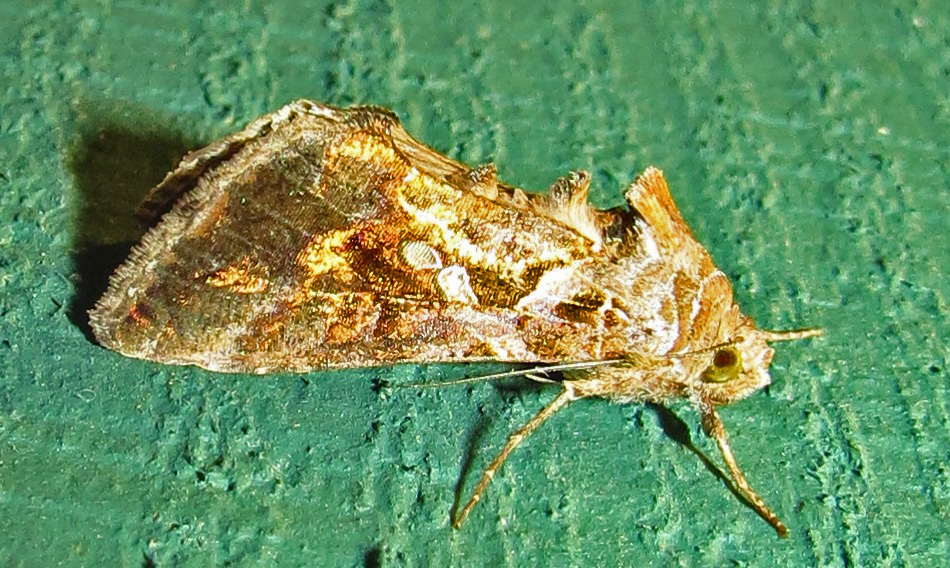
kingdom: Animalia
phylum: Arthropoda
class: Insecta
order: Lepidoptera
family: Noctuidae
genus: Chrysodeixis
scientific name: Chrysodeixis includens
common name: Cutworm moth
